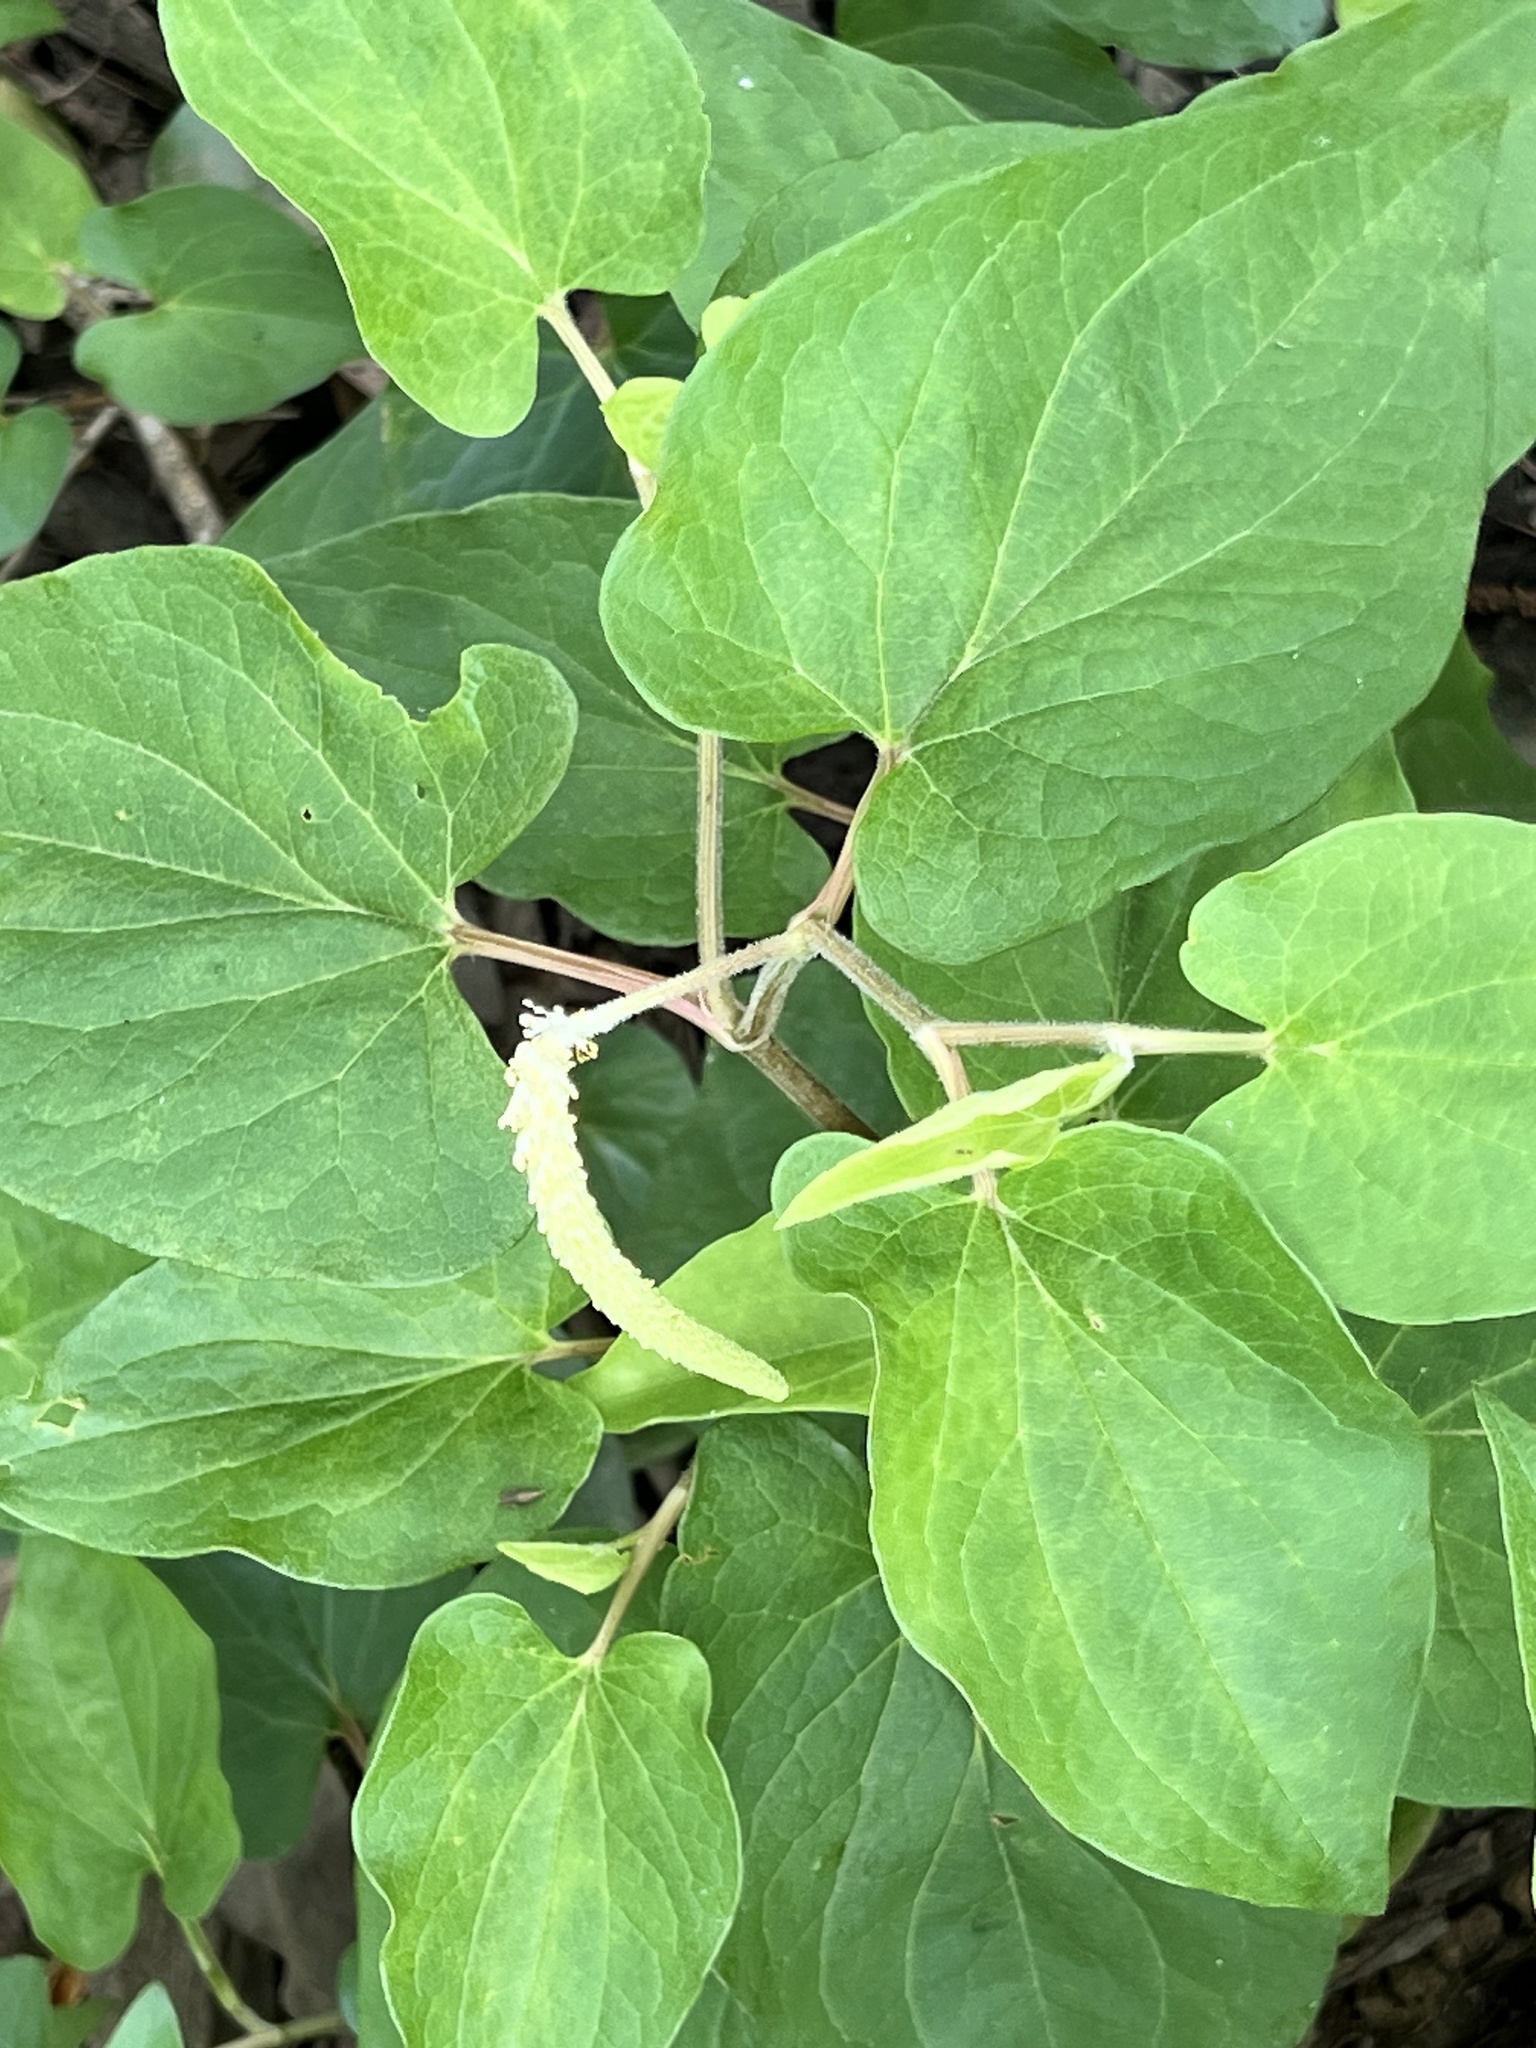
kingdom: Plantae
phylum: Tracheophyta
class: Magnoliopsida
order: Piperales
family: Saururaceae
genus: Saururus
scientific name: Saururus cernuus
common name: Lizard's-tail
